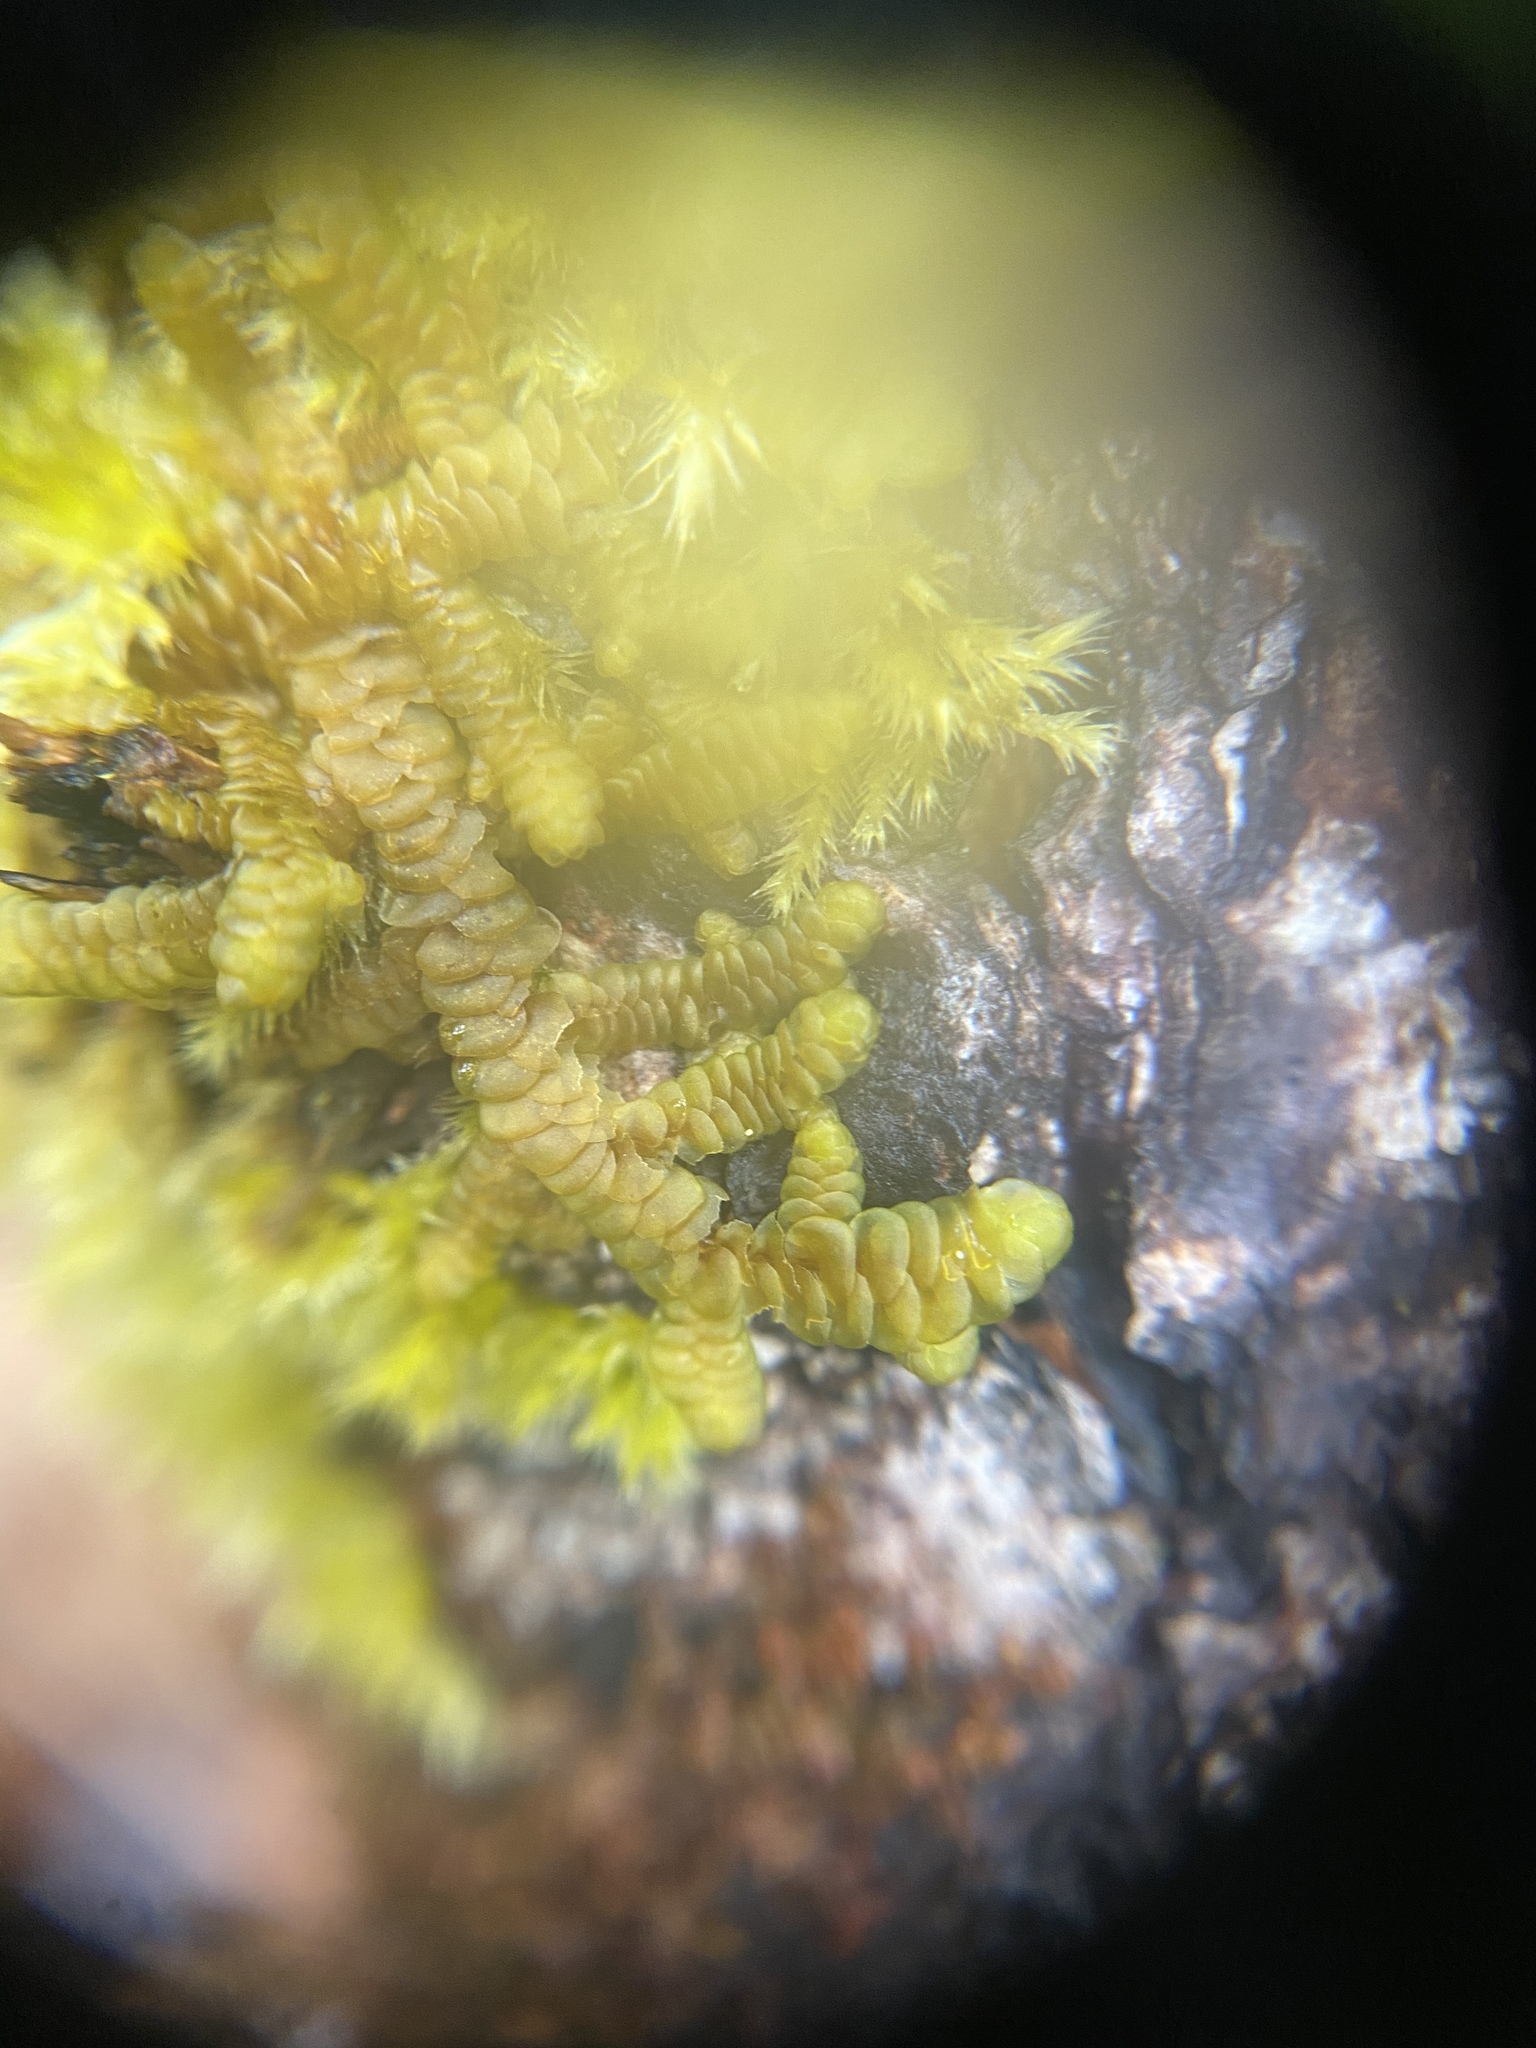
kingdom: Plantae
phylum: Marchantiophyta
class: Jungermanniopsida
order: Porellales
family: Porellaceae
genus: Porella
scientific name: Porella navicularis
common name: Tree ruffle liverwort
